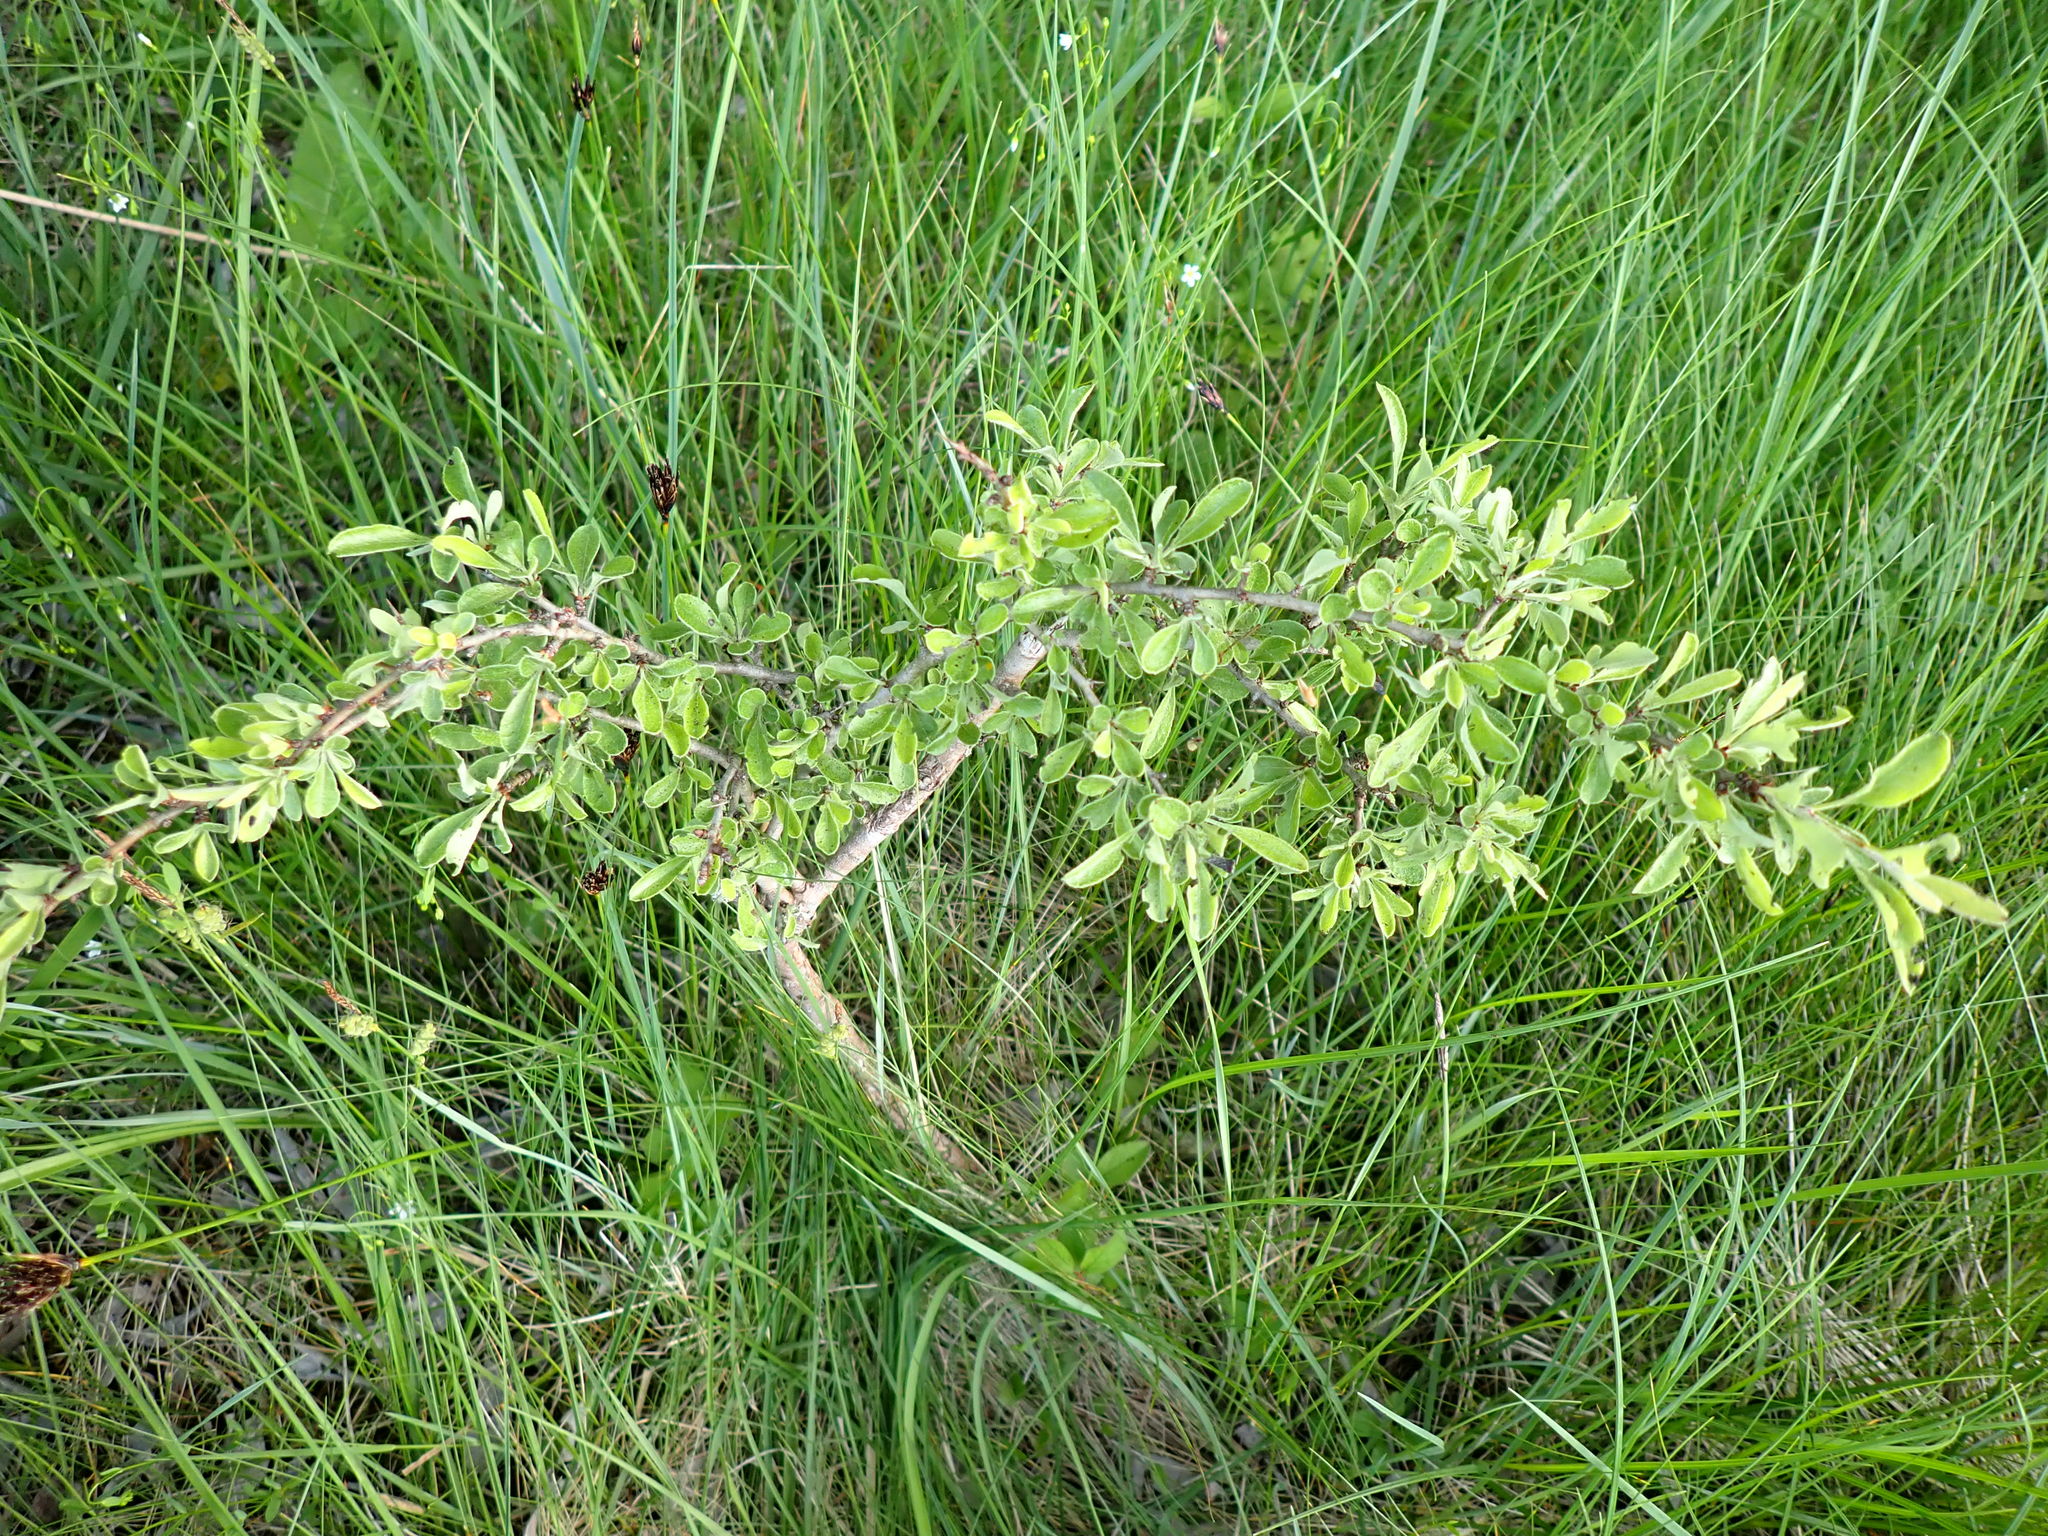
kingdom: Plantae
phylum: Tracheophyta
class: Magnoliopsida
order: Rosales
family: Rosaceae
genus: Pyrus
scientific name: Pyrus spinosa
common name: Almond-leaf pear
